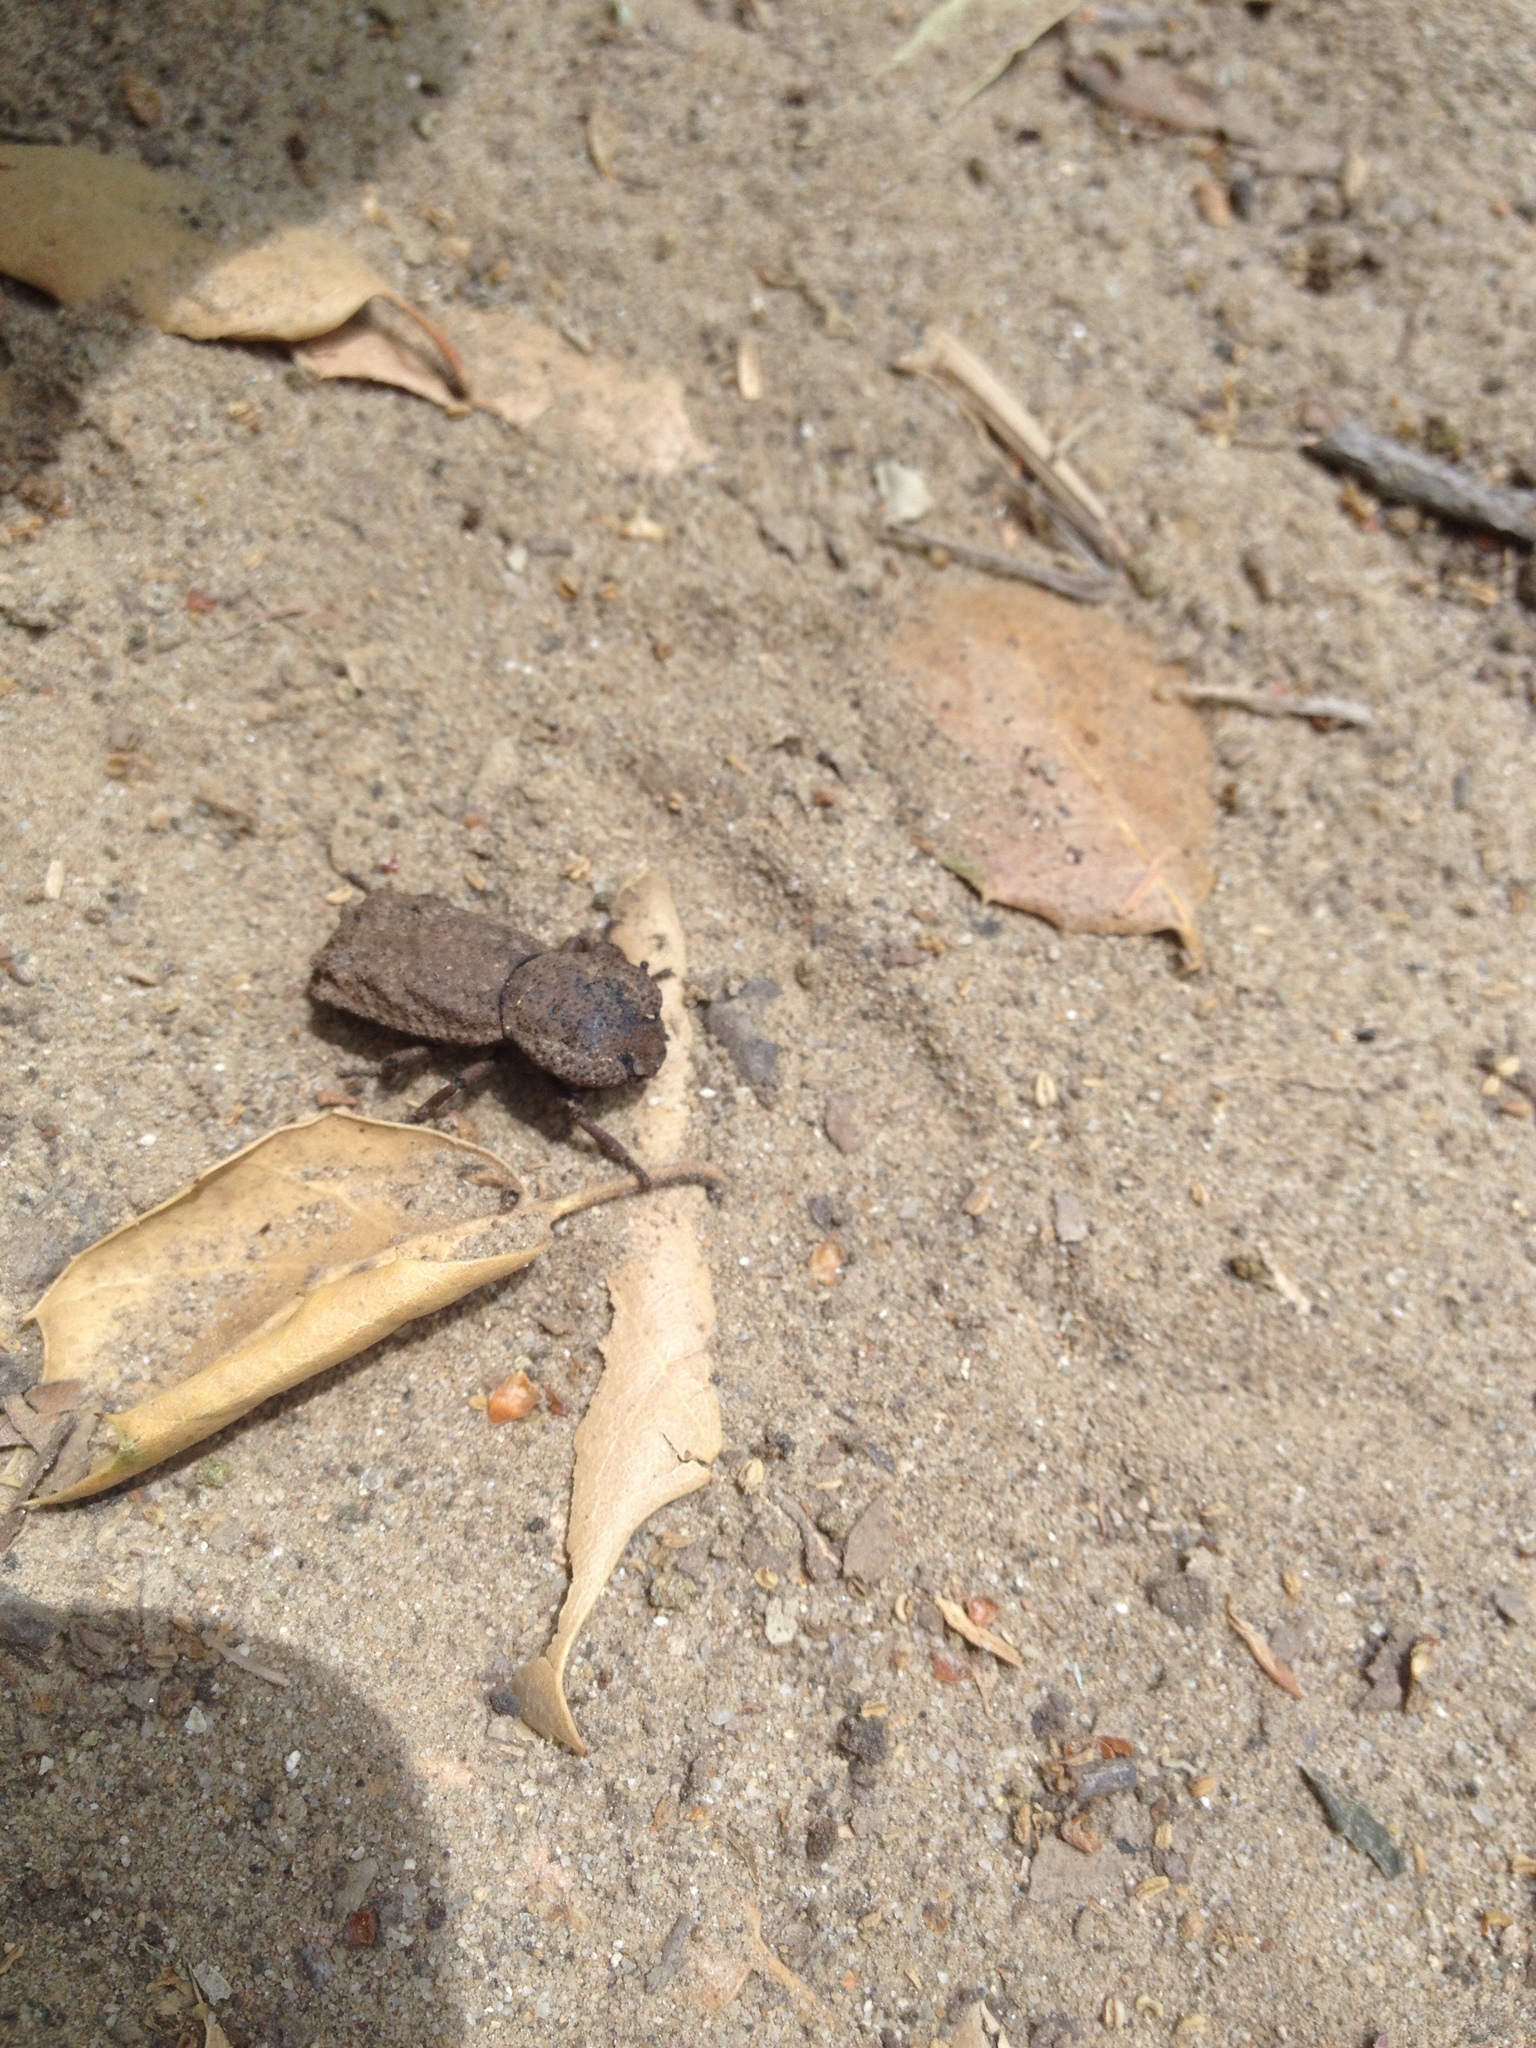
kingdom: Animalia
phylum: Arthropoda
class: Insecta
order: Coleoptera
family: Zopheridae
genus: Phloeodes
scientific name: Phloeodes plicatus
